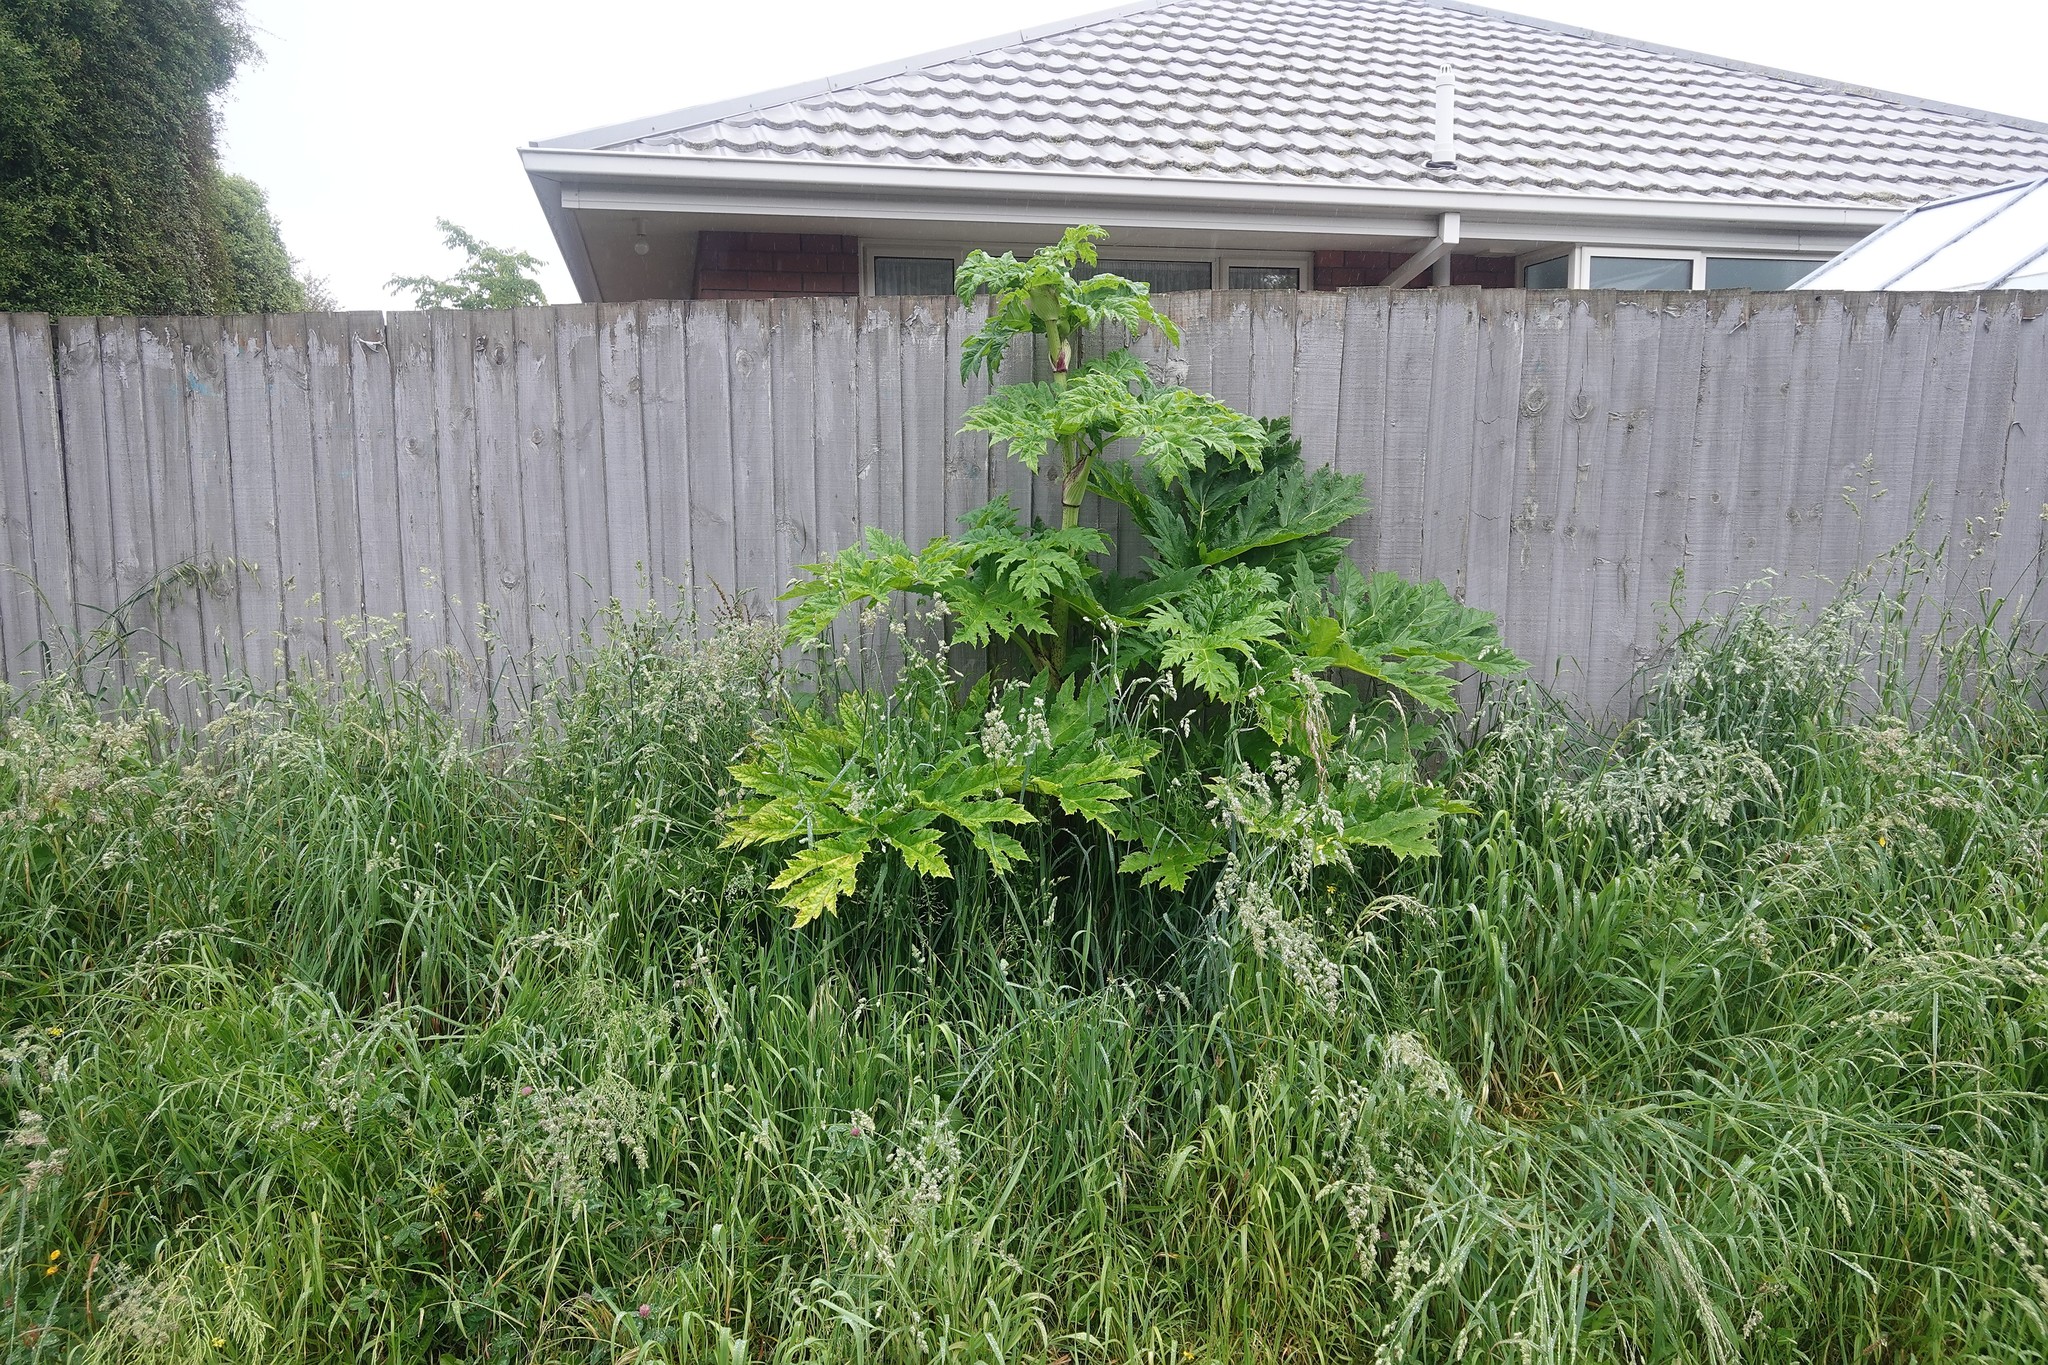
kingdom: Plantae
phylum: Tracheophyta
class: Magnoliopsida
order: Apiales
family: Apiaceae
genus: Heracleum
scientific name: Heracleum mantegazzianum
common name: Giant hogweed
